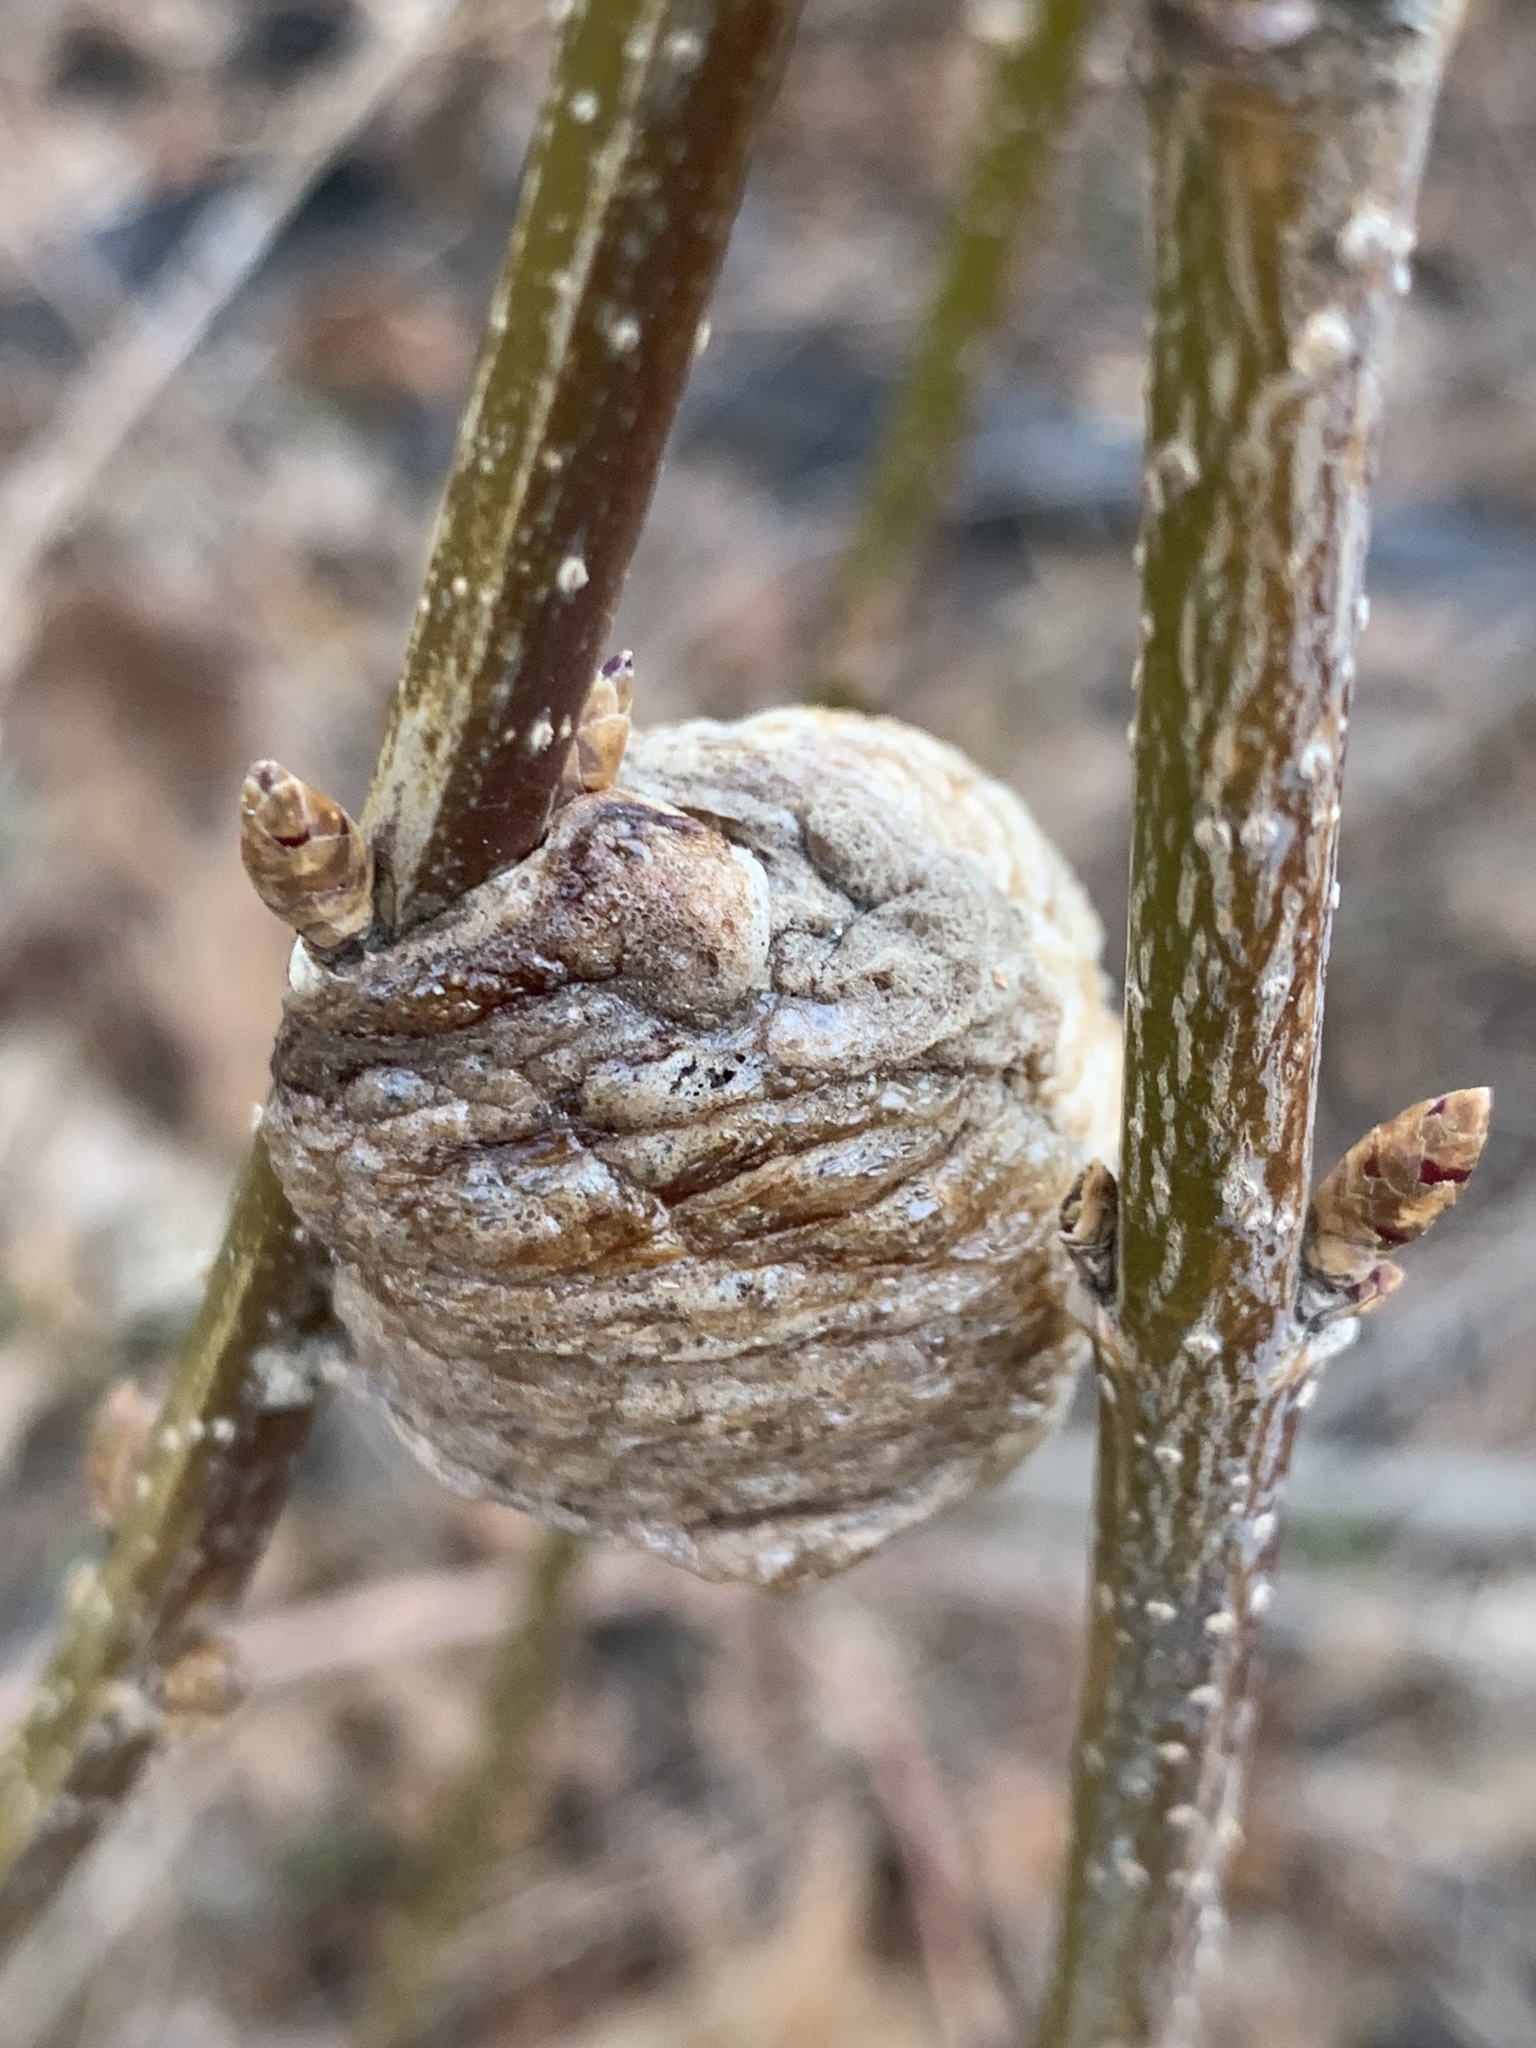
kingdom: Animalia
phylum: Arthropoda
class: Insecta
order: Mantodea
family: Mantidae
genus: Tenodera
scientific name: Tenodera sinensis
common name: Chinese mantis
